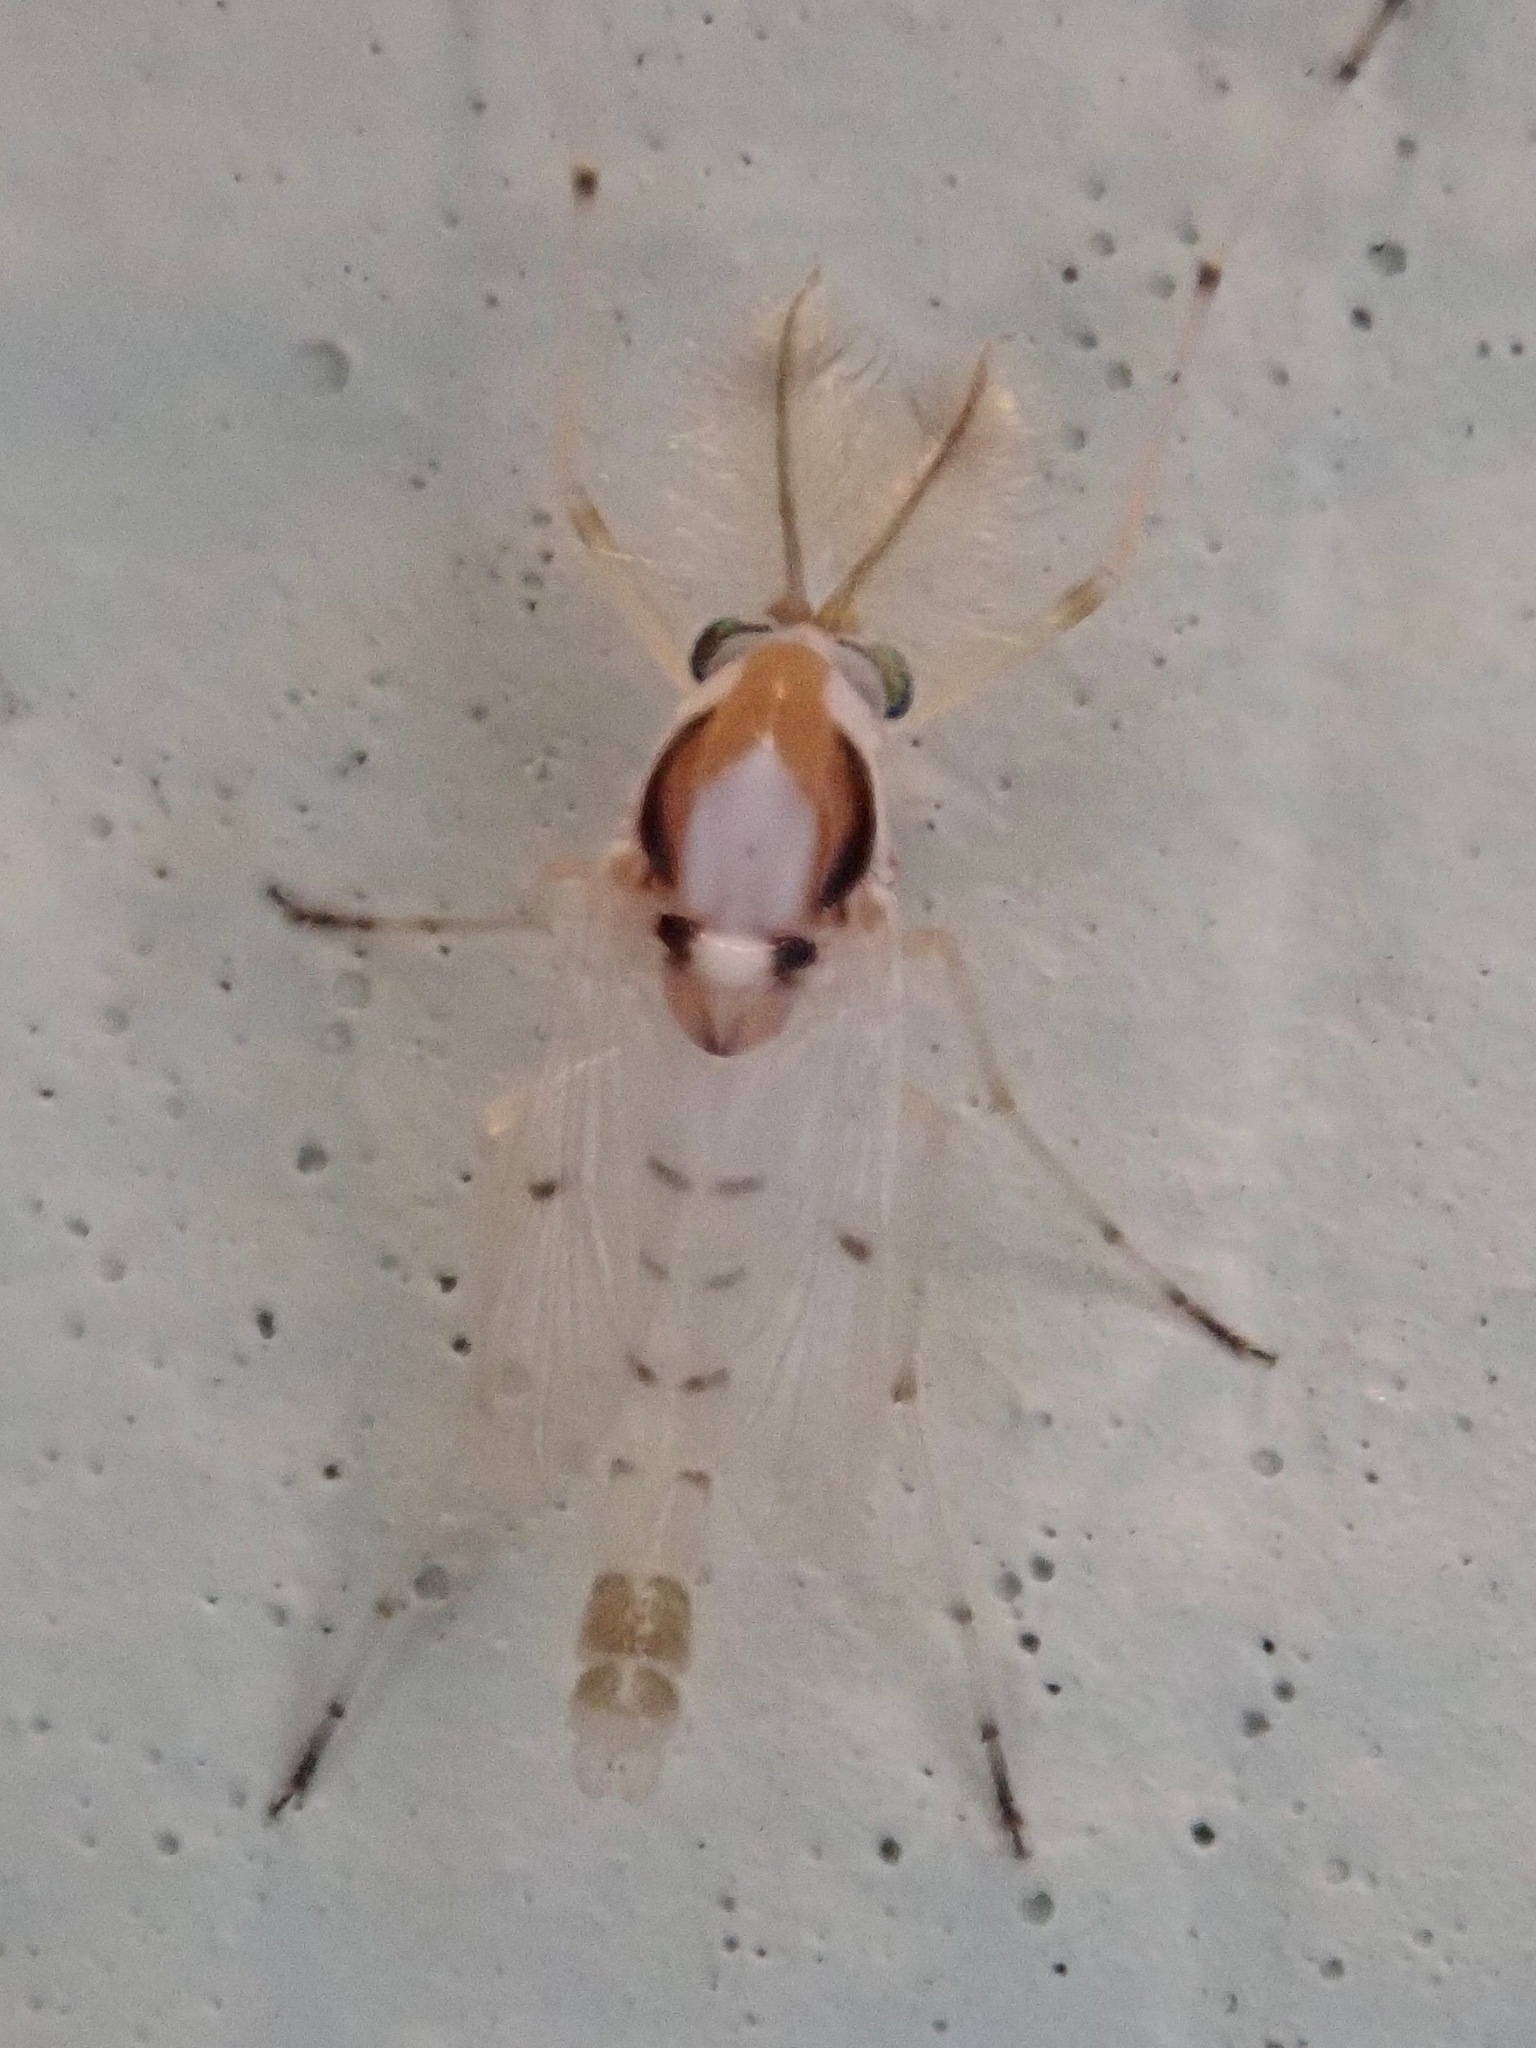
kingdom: Animalia
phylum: Arthropoda
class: Insecta
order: Diptera
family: Chironomidae
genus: Coelotanypus
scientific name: Coelotanypus concinnus
